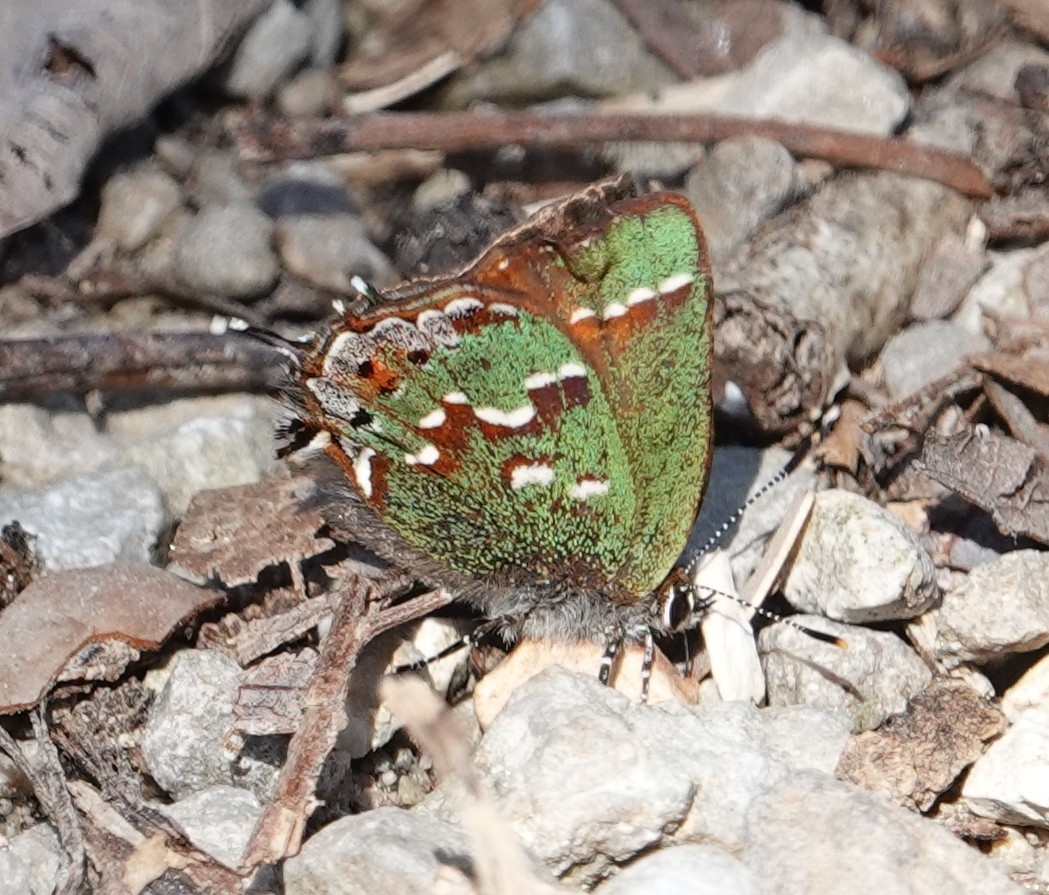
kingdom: Animalia
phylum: Arthropoda
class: Insecta
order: Lepidoptera
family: Lycaenidae
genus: Mitoura
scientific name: Mitoura gryneus
